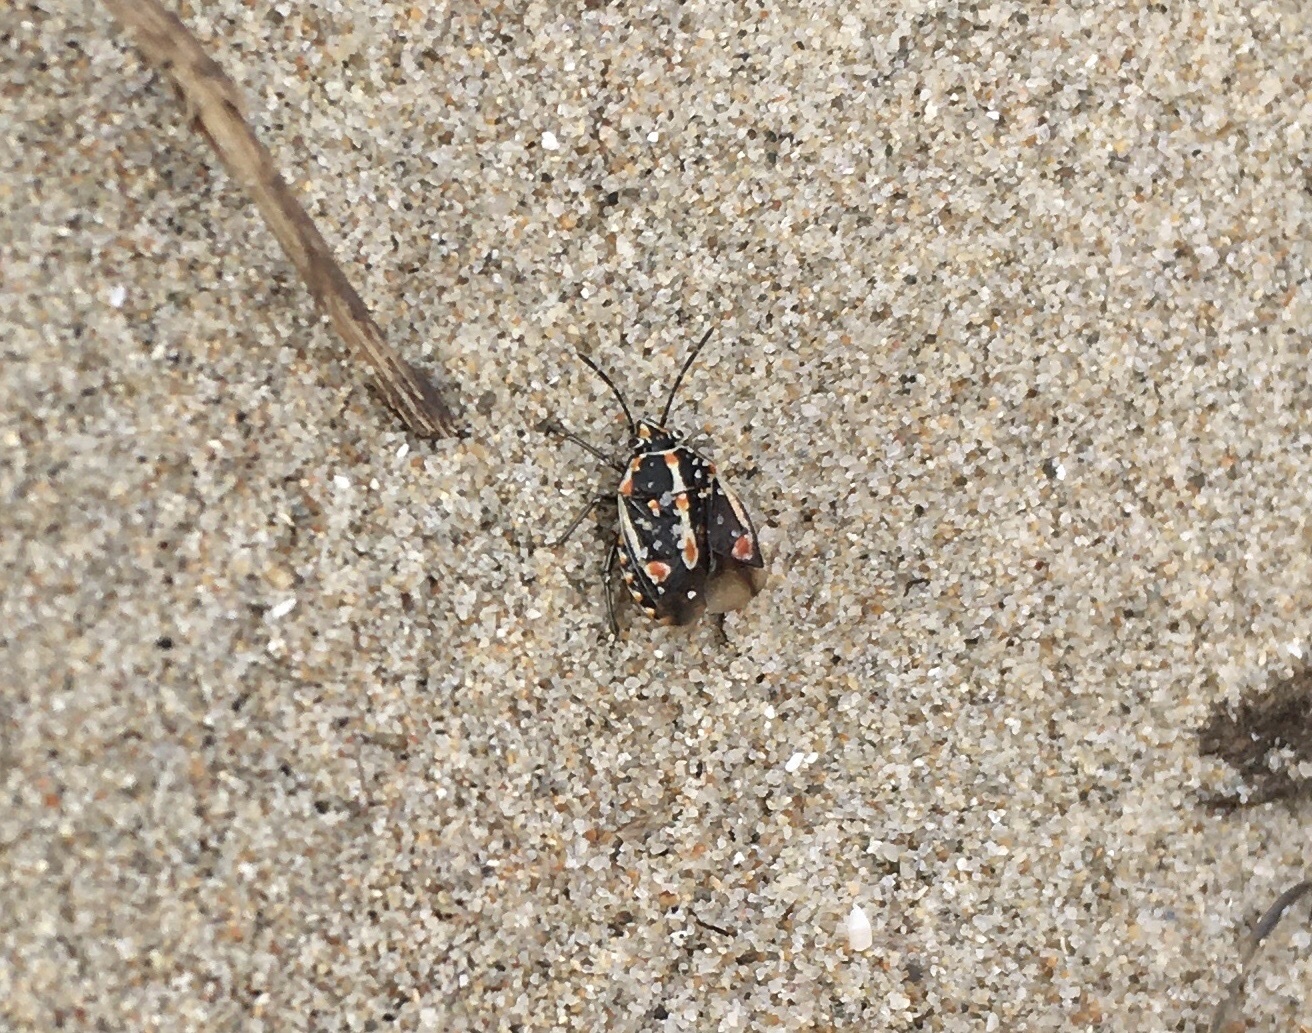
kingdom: Animalia
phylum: Arthropoda
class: Insecta
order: Hemiptera
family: Pentatomidae
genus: Bagrada
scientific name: Bagrada hilaris
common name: Bagrada bug
